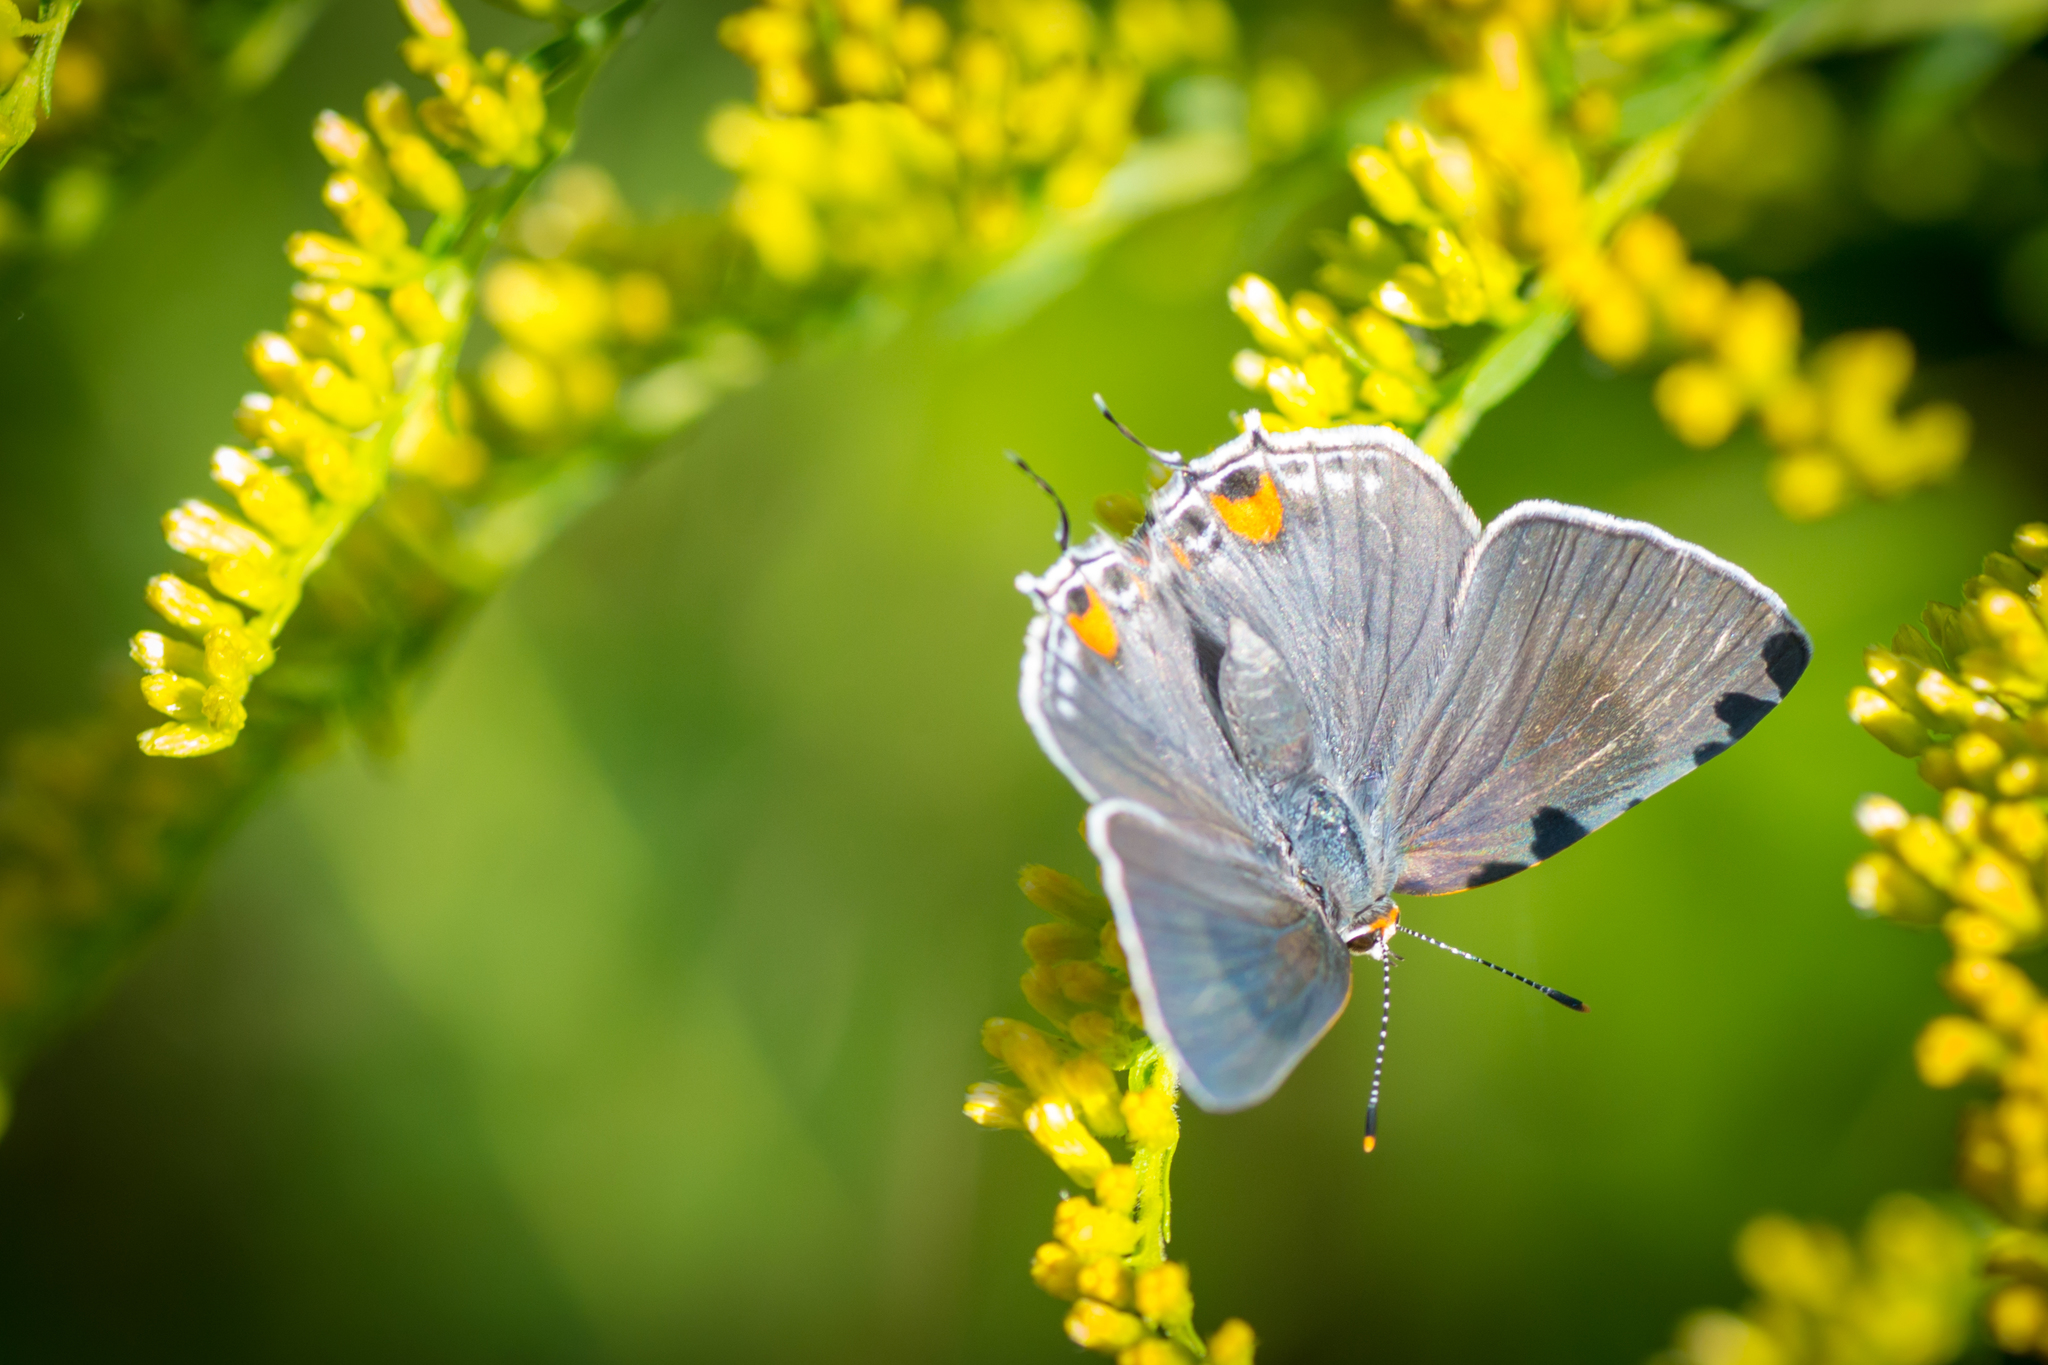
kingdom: Animalia
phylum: Arthropoda
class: Insecta
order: Lepidoptera
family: Lycaenidae
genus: Strymon
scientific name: Strymon melinus
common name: Gray hairstreak
